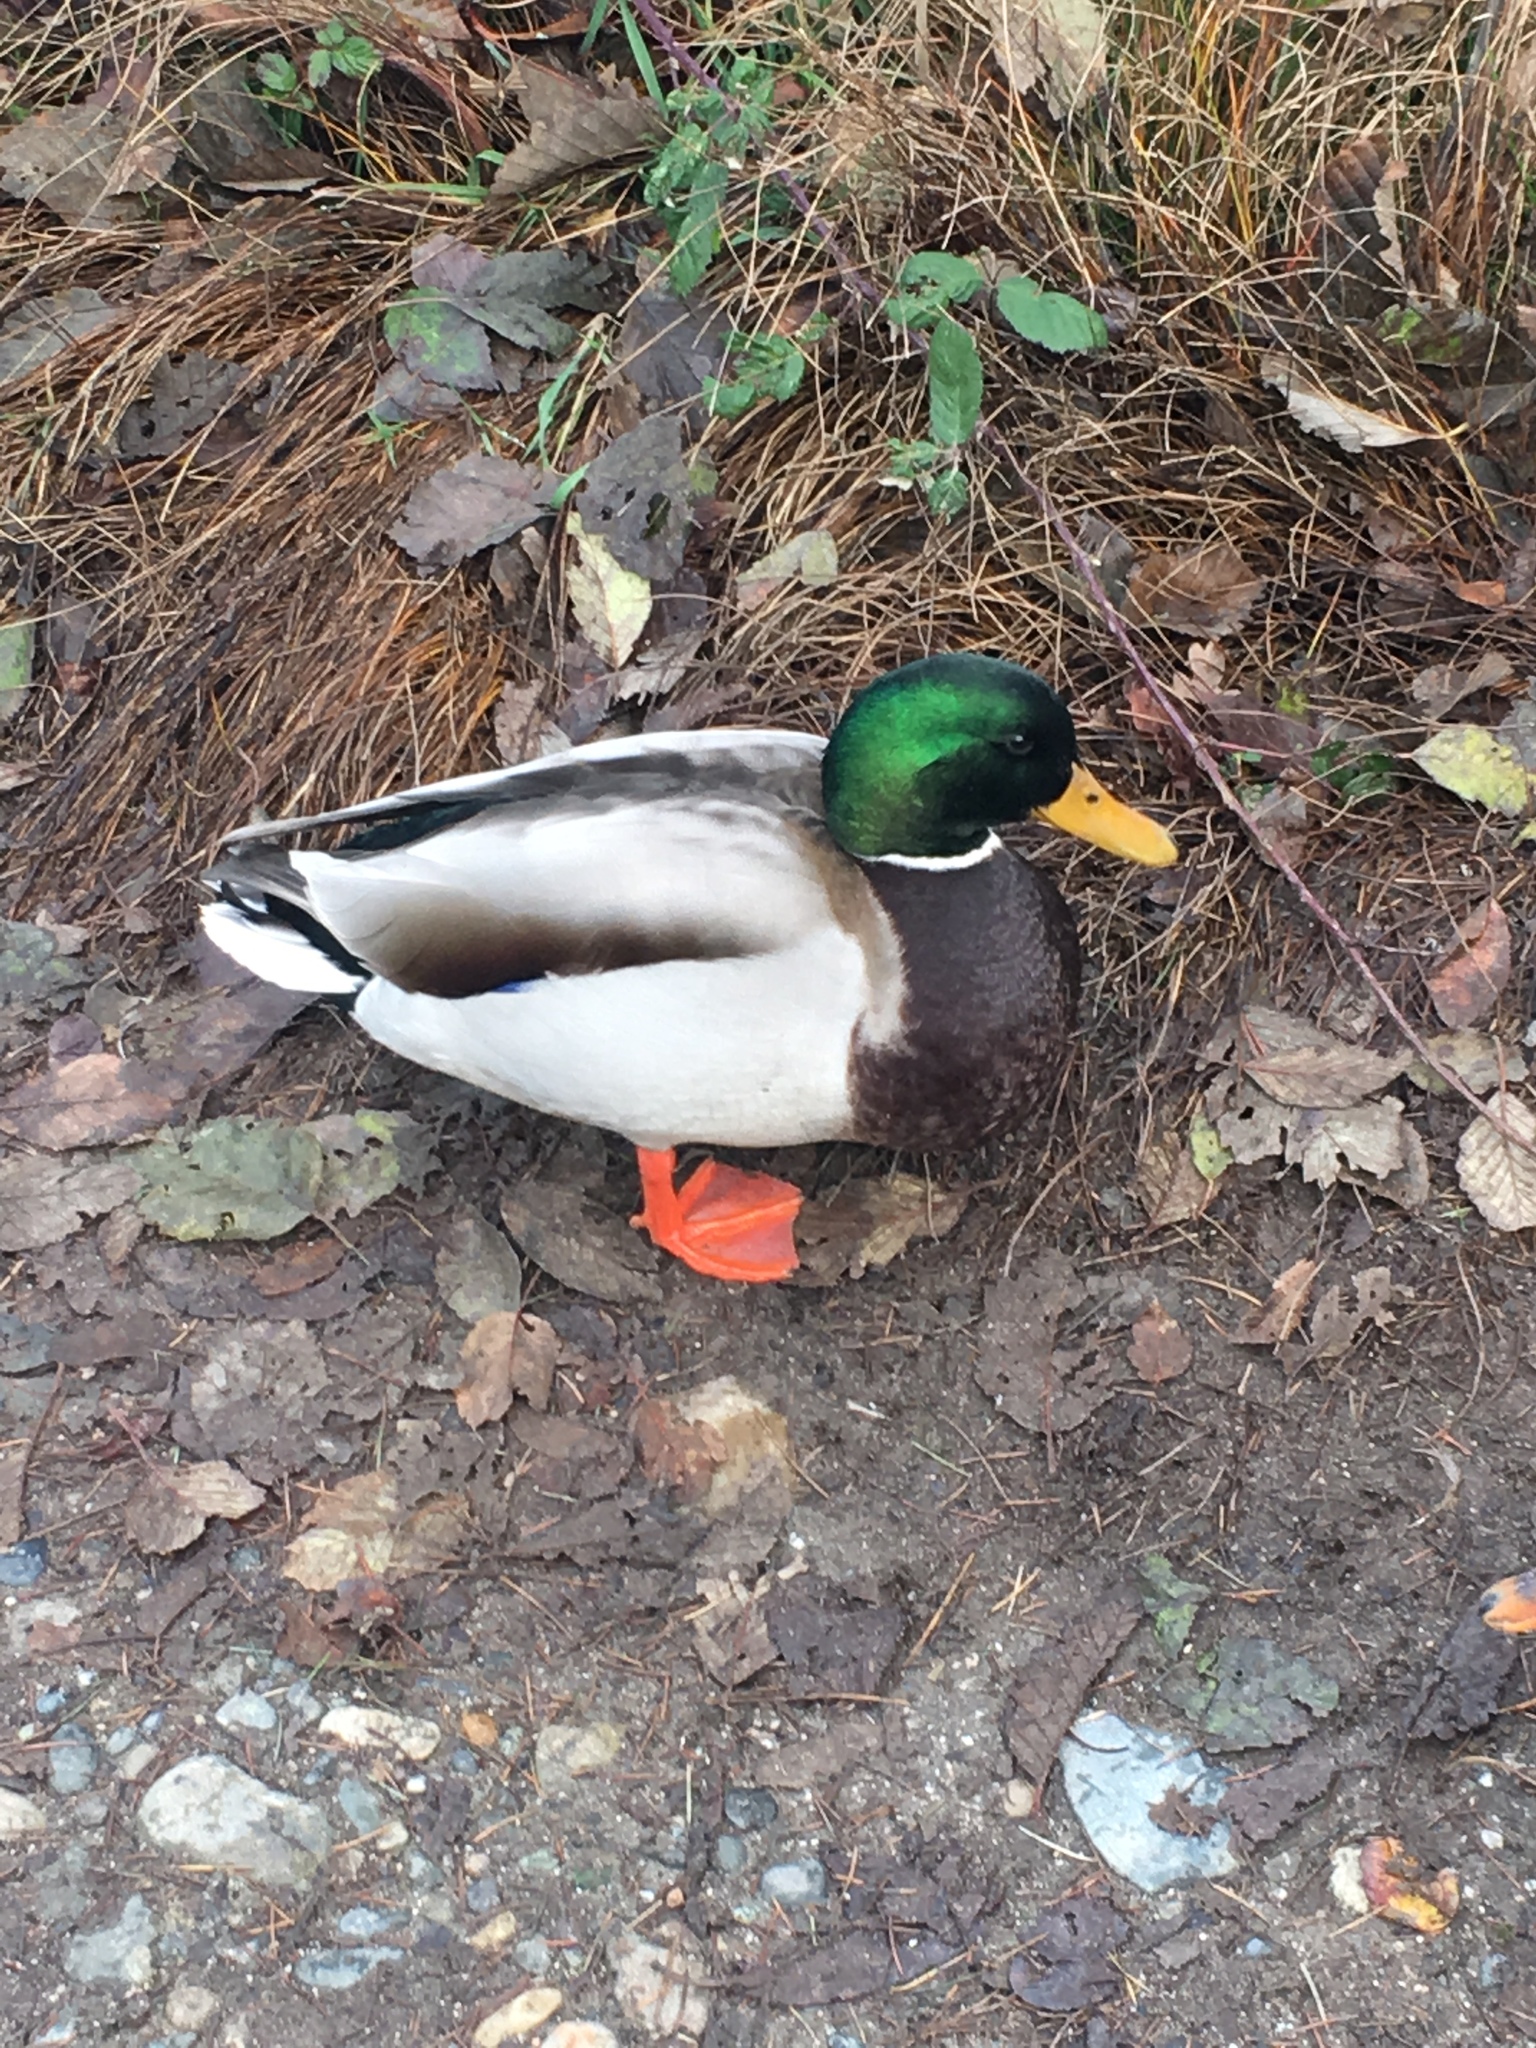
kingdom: Animalia
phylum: Chordata
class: Aves
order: Anseriformes
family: Anatidae
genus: Anas
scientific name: Anas platyrhynchos
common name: Mallard
